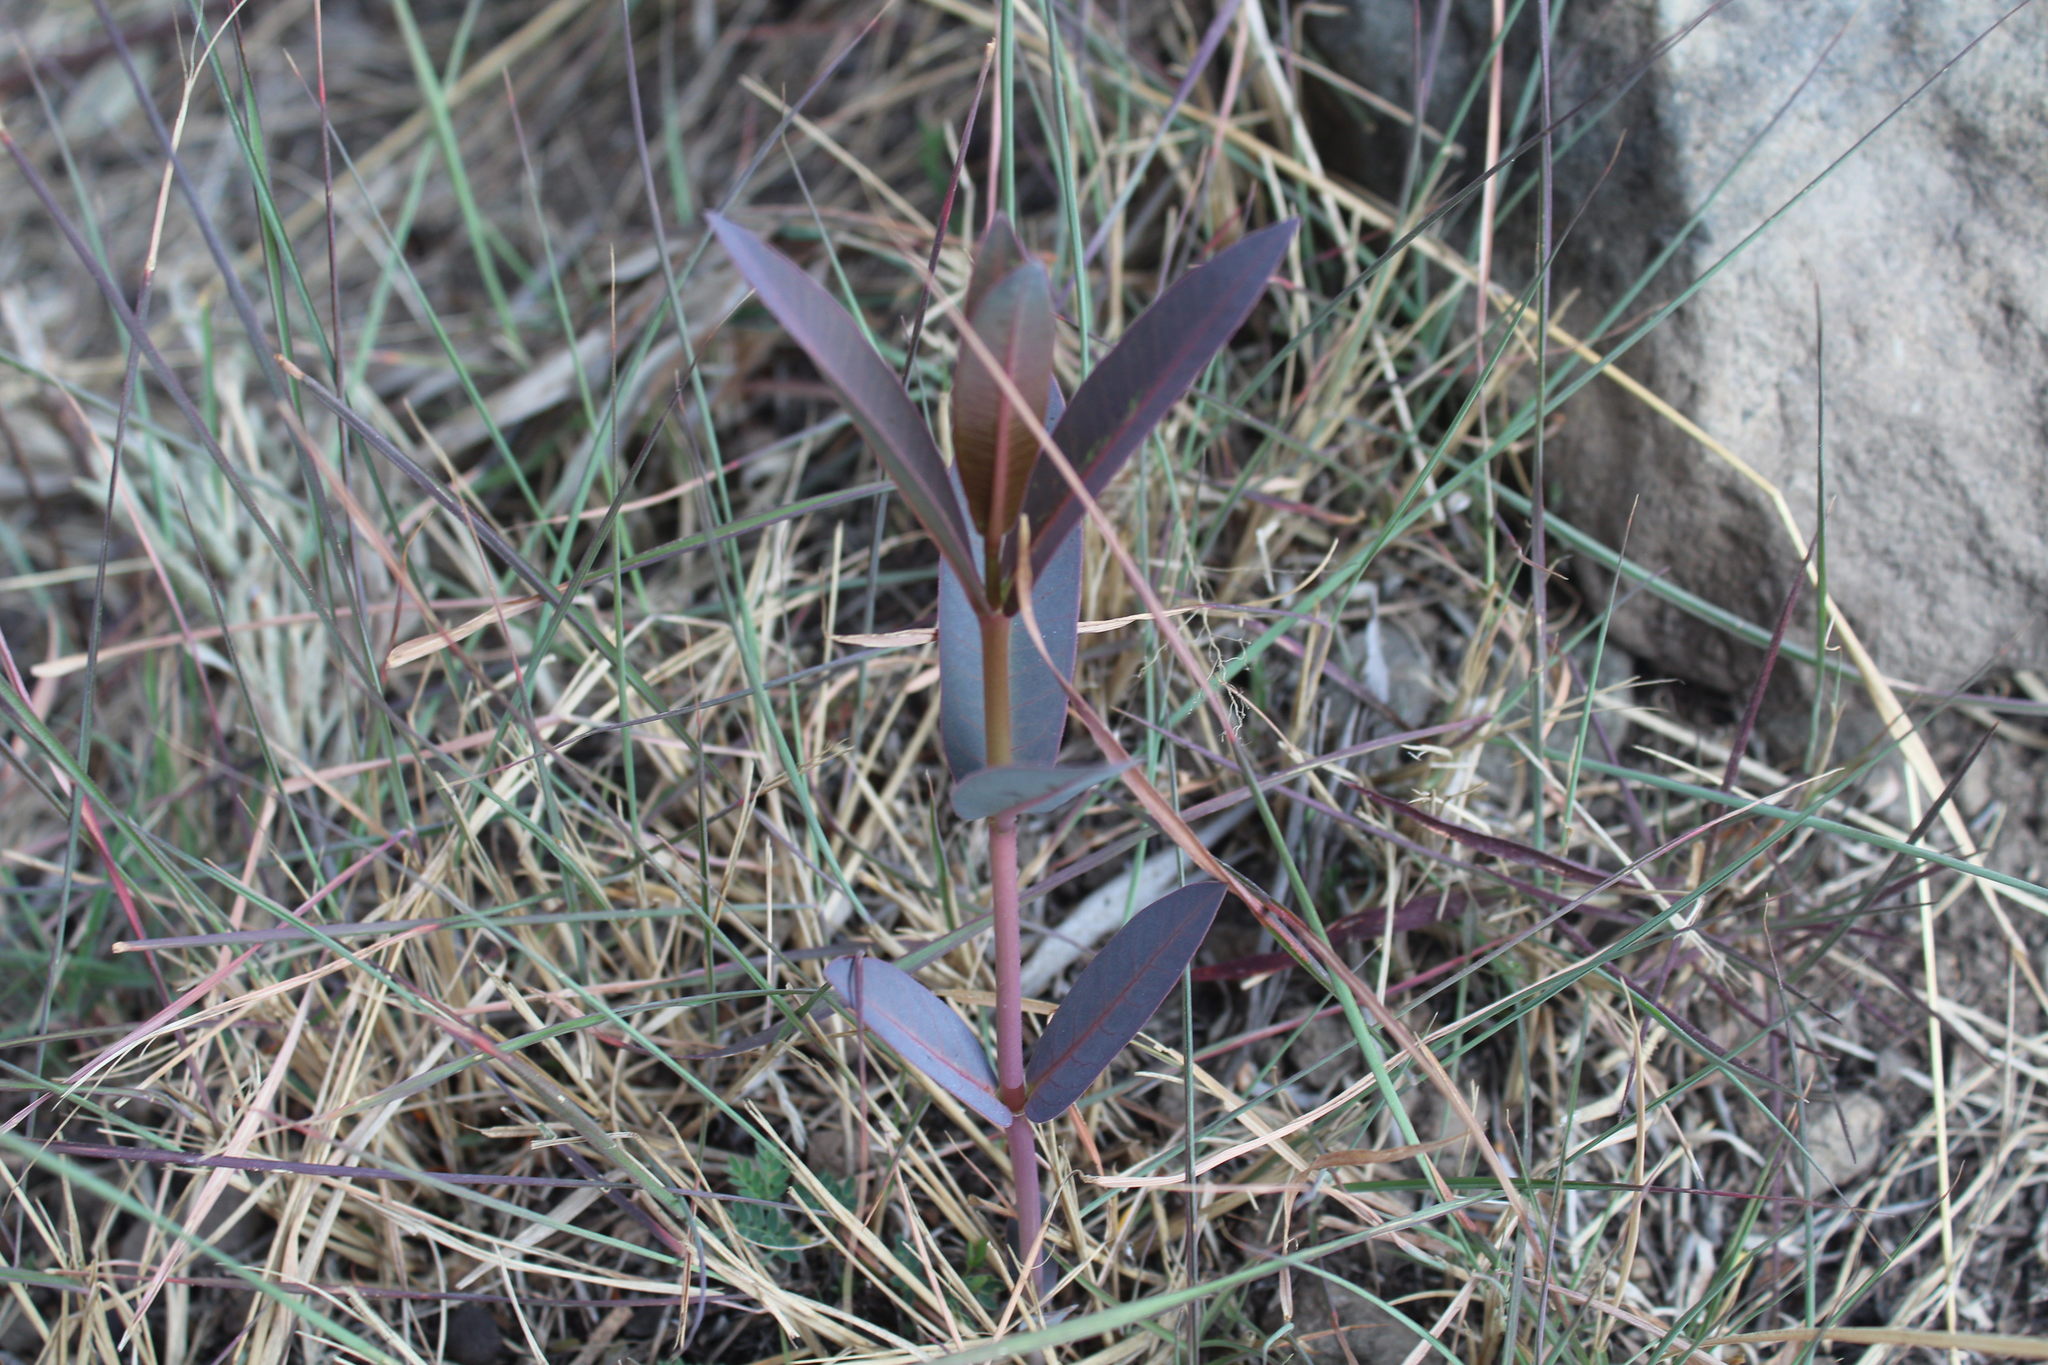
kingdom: Plantae
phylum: Tracheophyta
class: Magnoliopsida
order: Gentianales
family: Apocynaceae
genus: Asclepias
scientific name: Asclepias glaucescens
